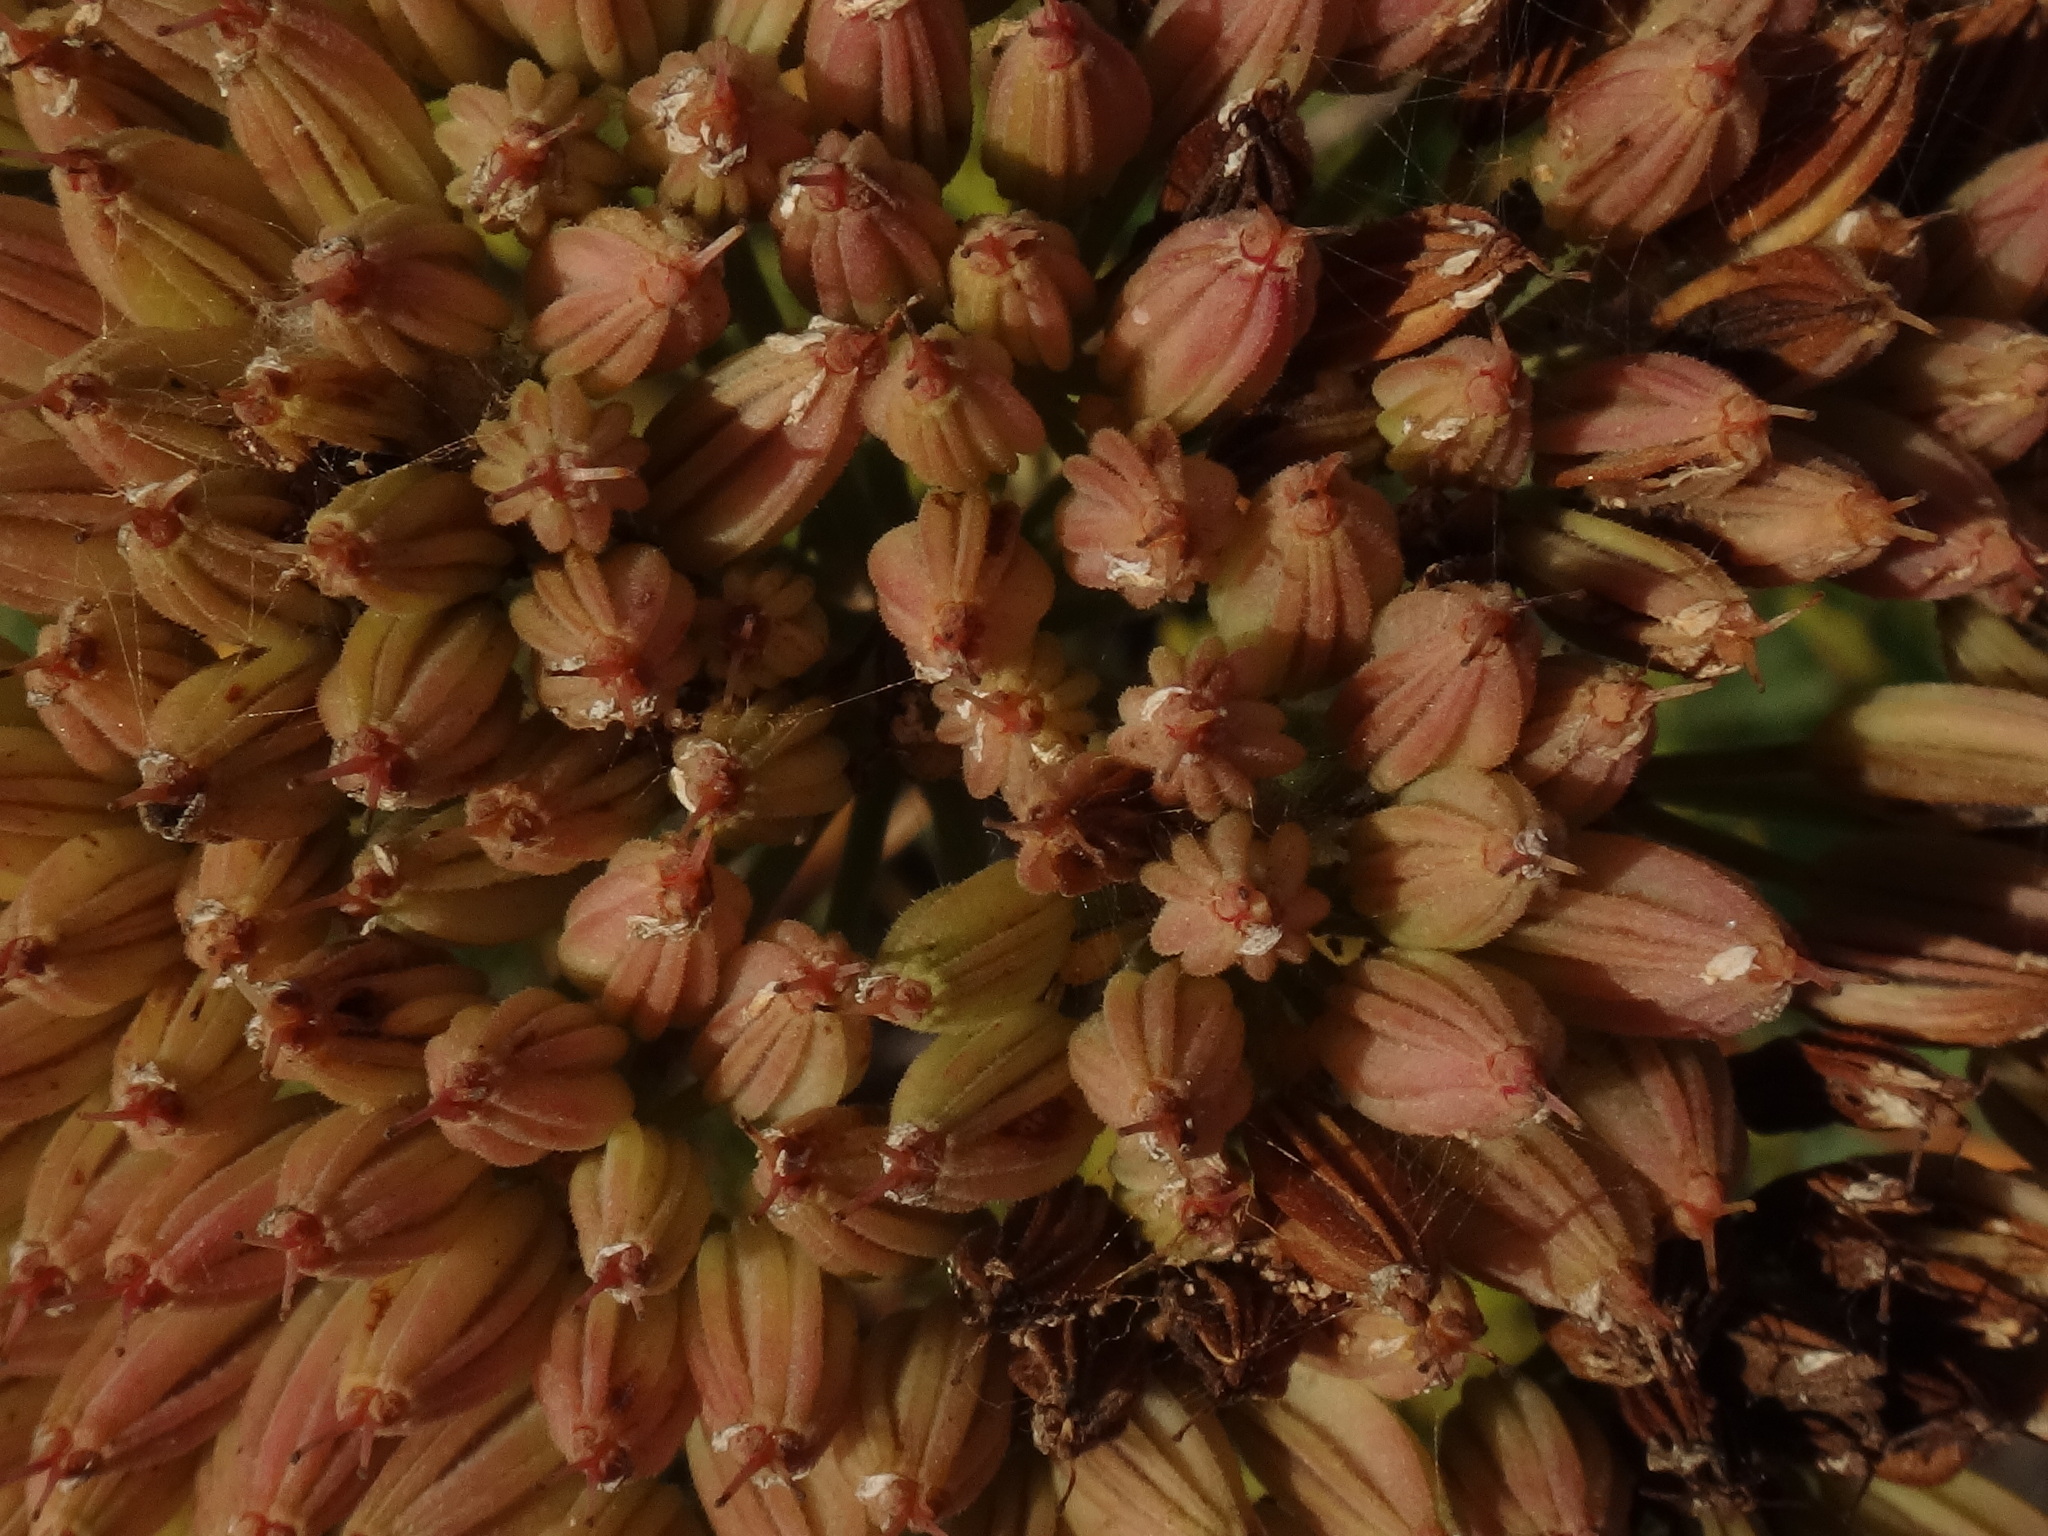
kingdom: Plantae
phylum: Tracheophyta
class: Magnoliopsida
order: Apiales
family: Apiaceae
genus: Todaroa
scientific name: Todaroa aurea
